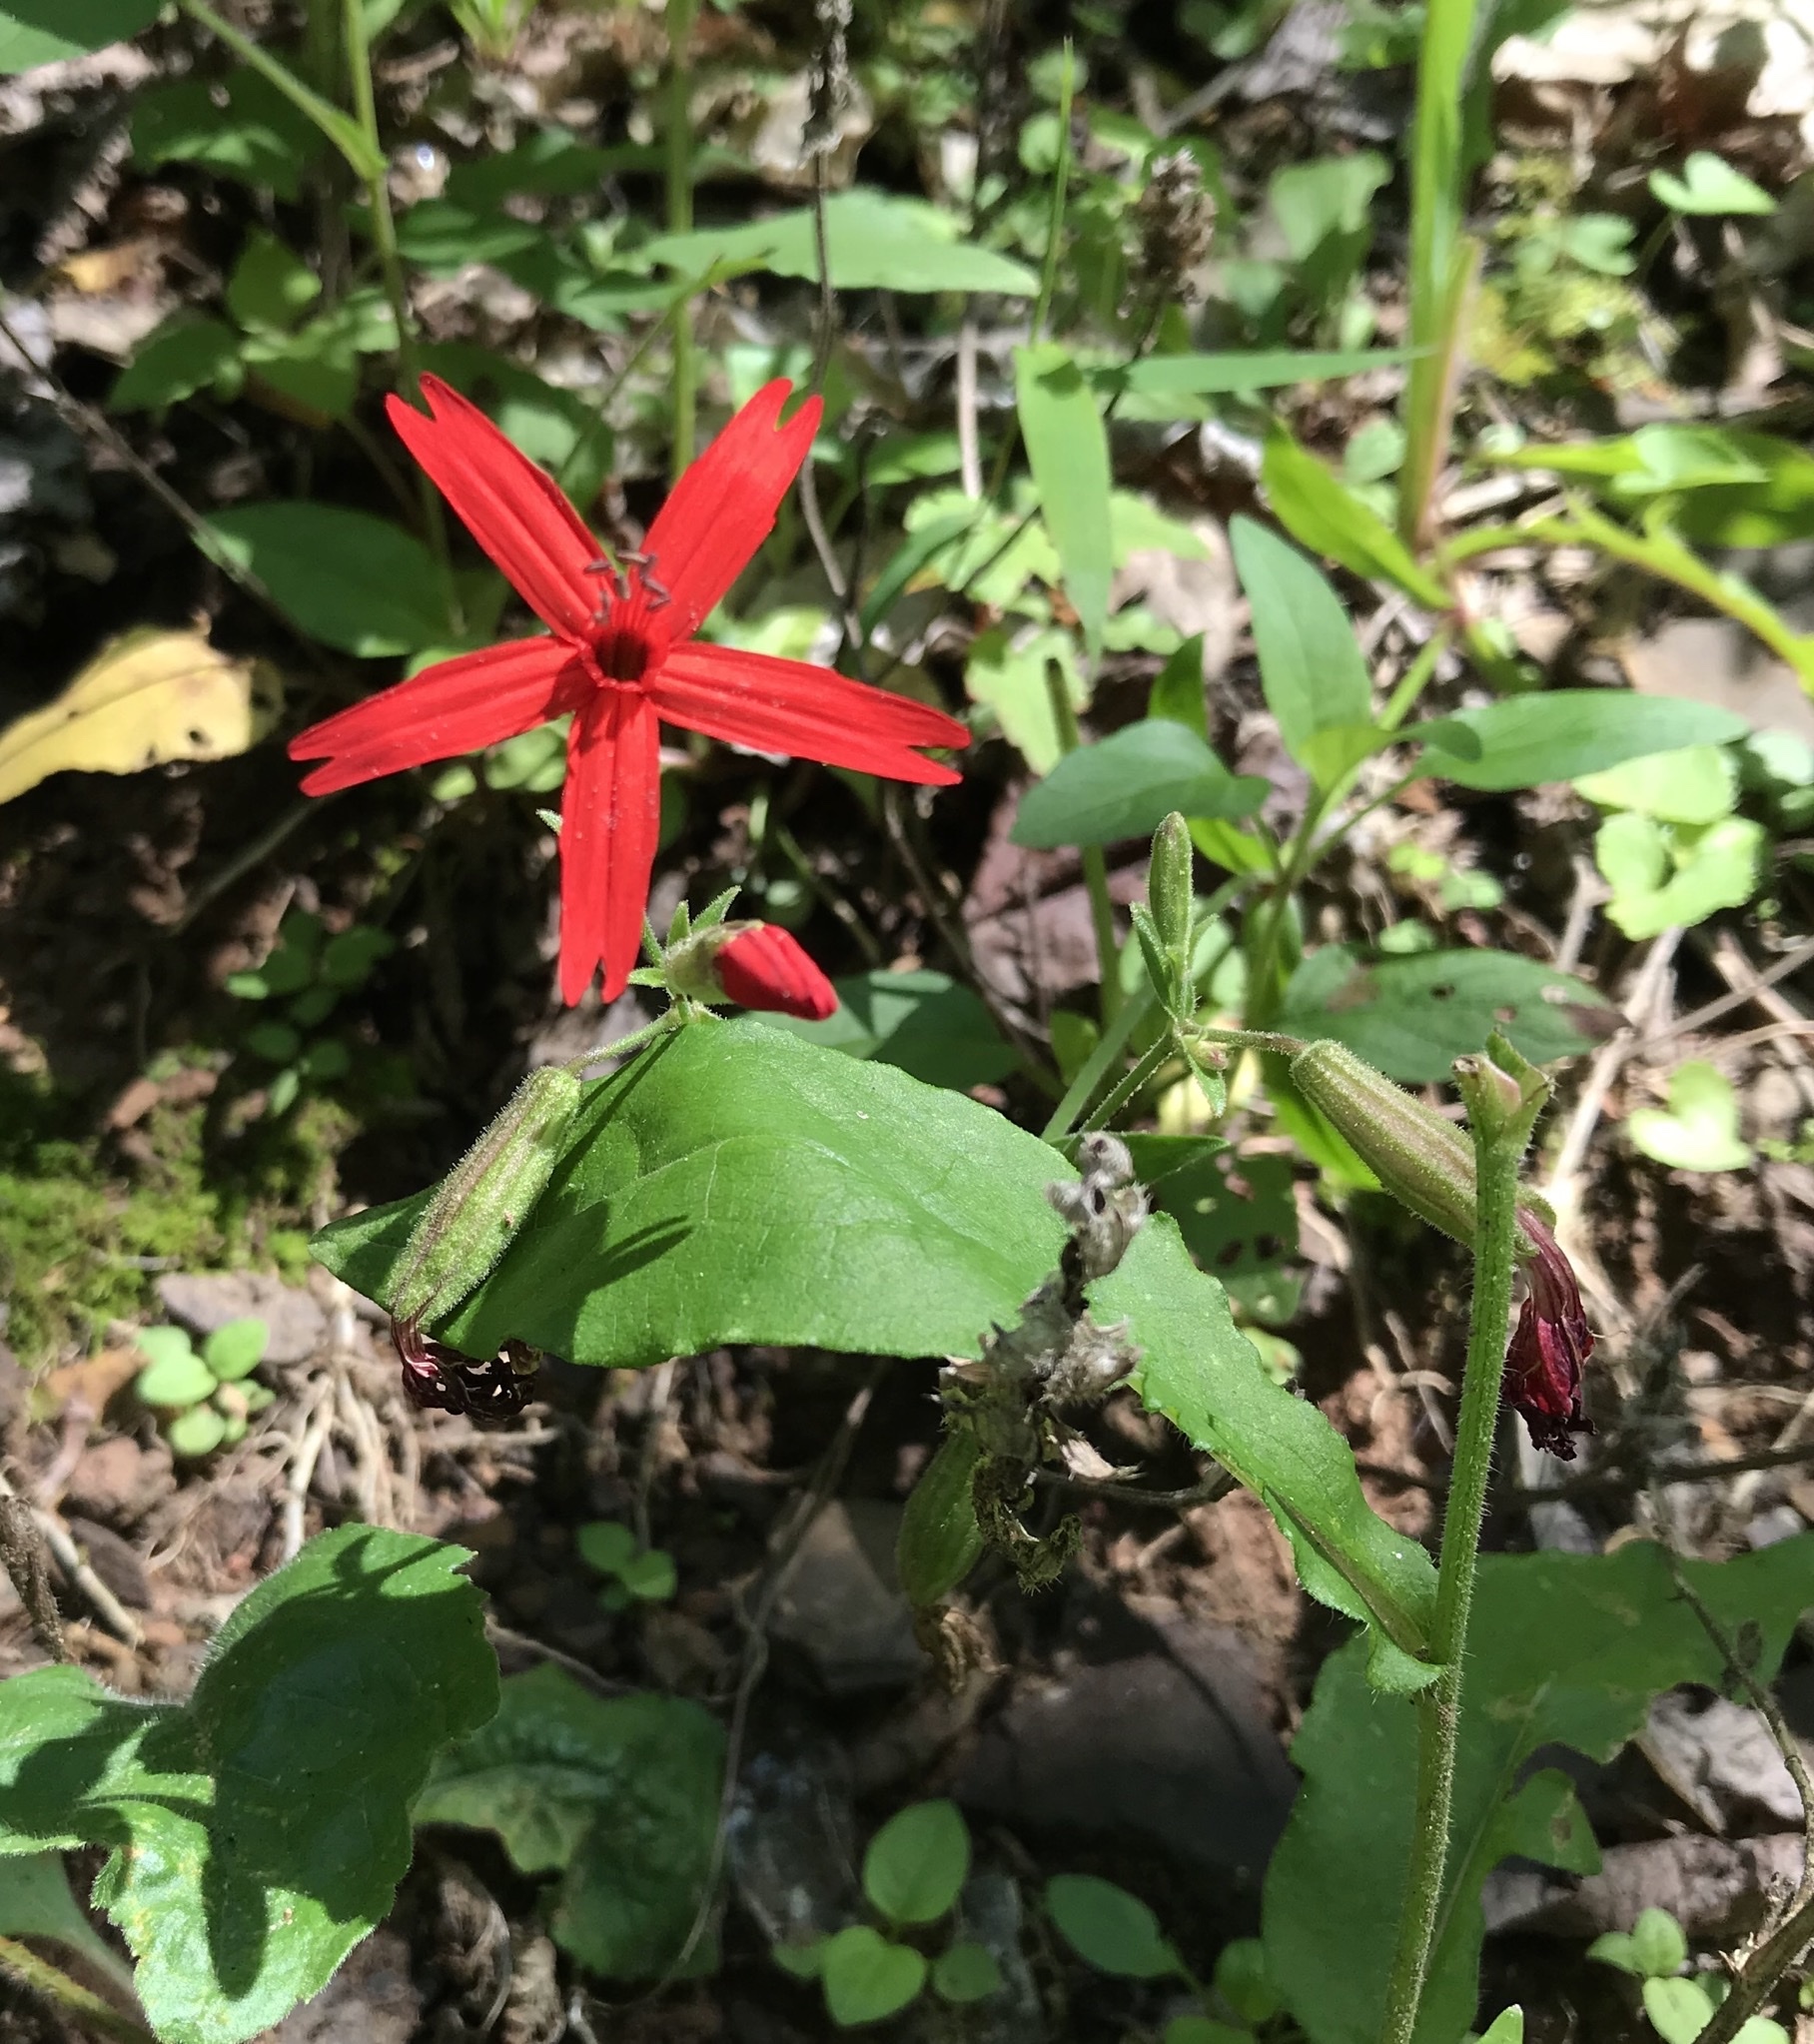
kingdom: Plantae
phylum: Tracheophyta
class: Magnoliopsida
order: Caryophyllales
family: Caryophyllaceae
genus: Silene
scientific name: Silene virginica
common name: Fire-pink
